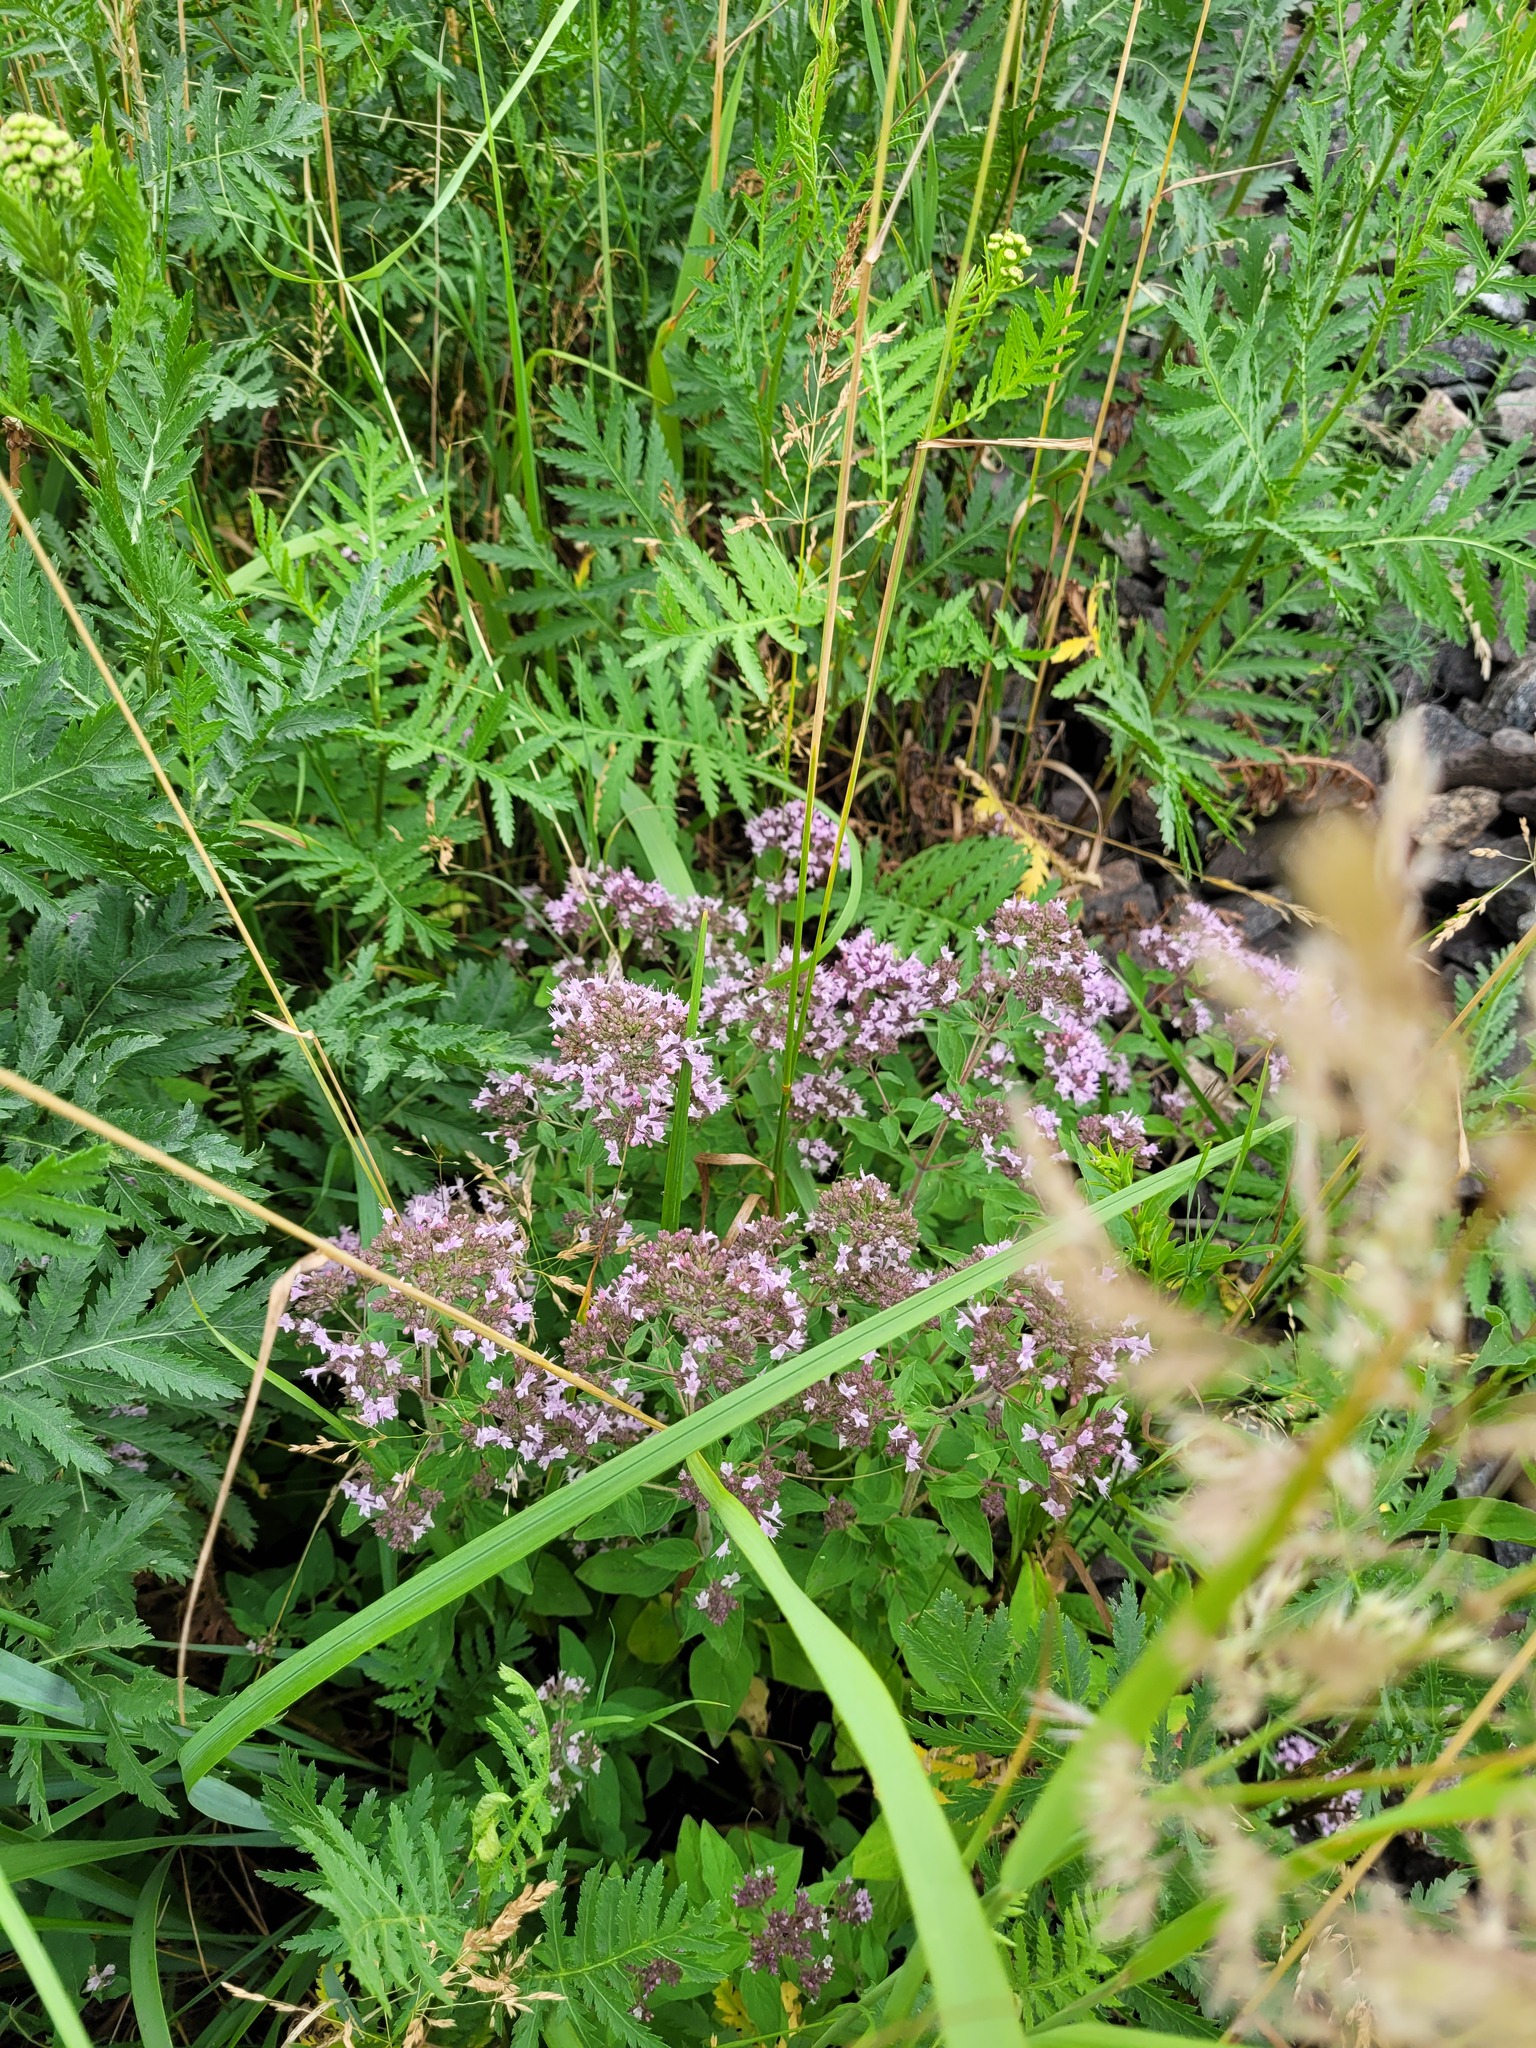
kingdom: Plantae
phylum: Tracheophyta
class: Magnoliopsida
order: Lamiales
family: Lamiaceae
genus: Origanum
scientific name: Origanum vulgare
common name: Wild marjoram
